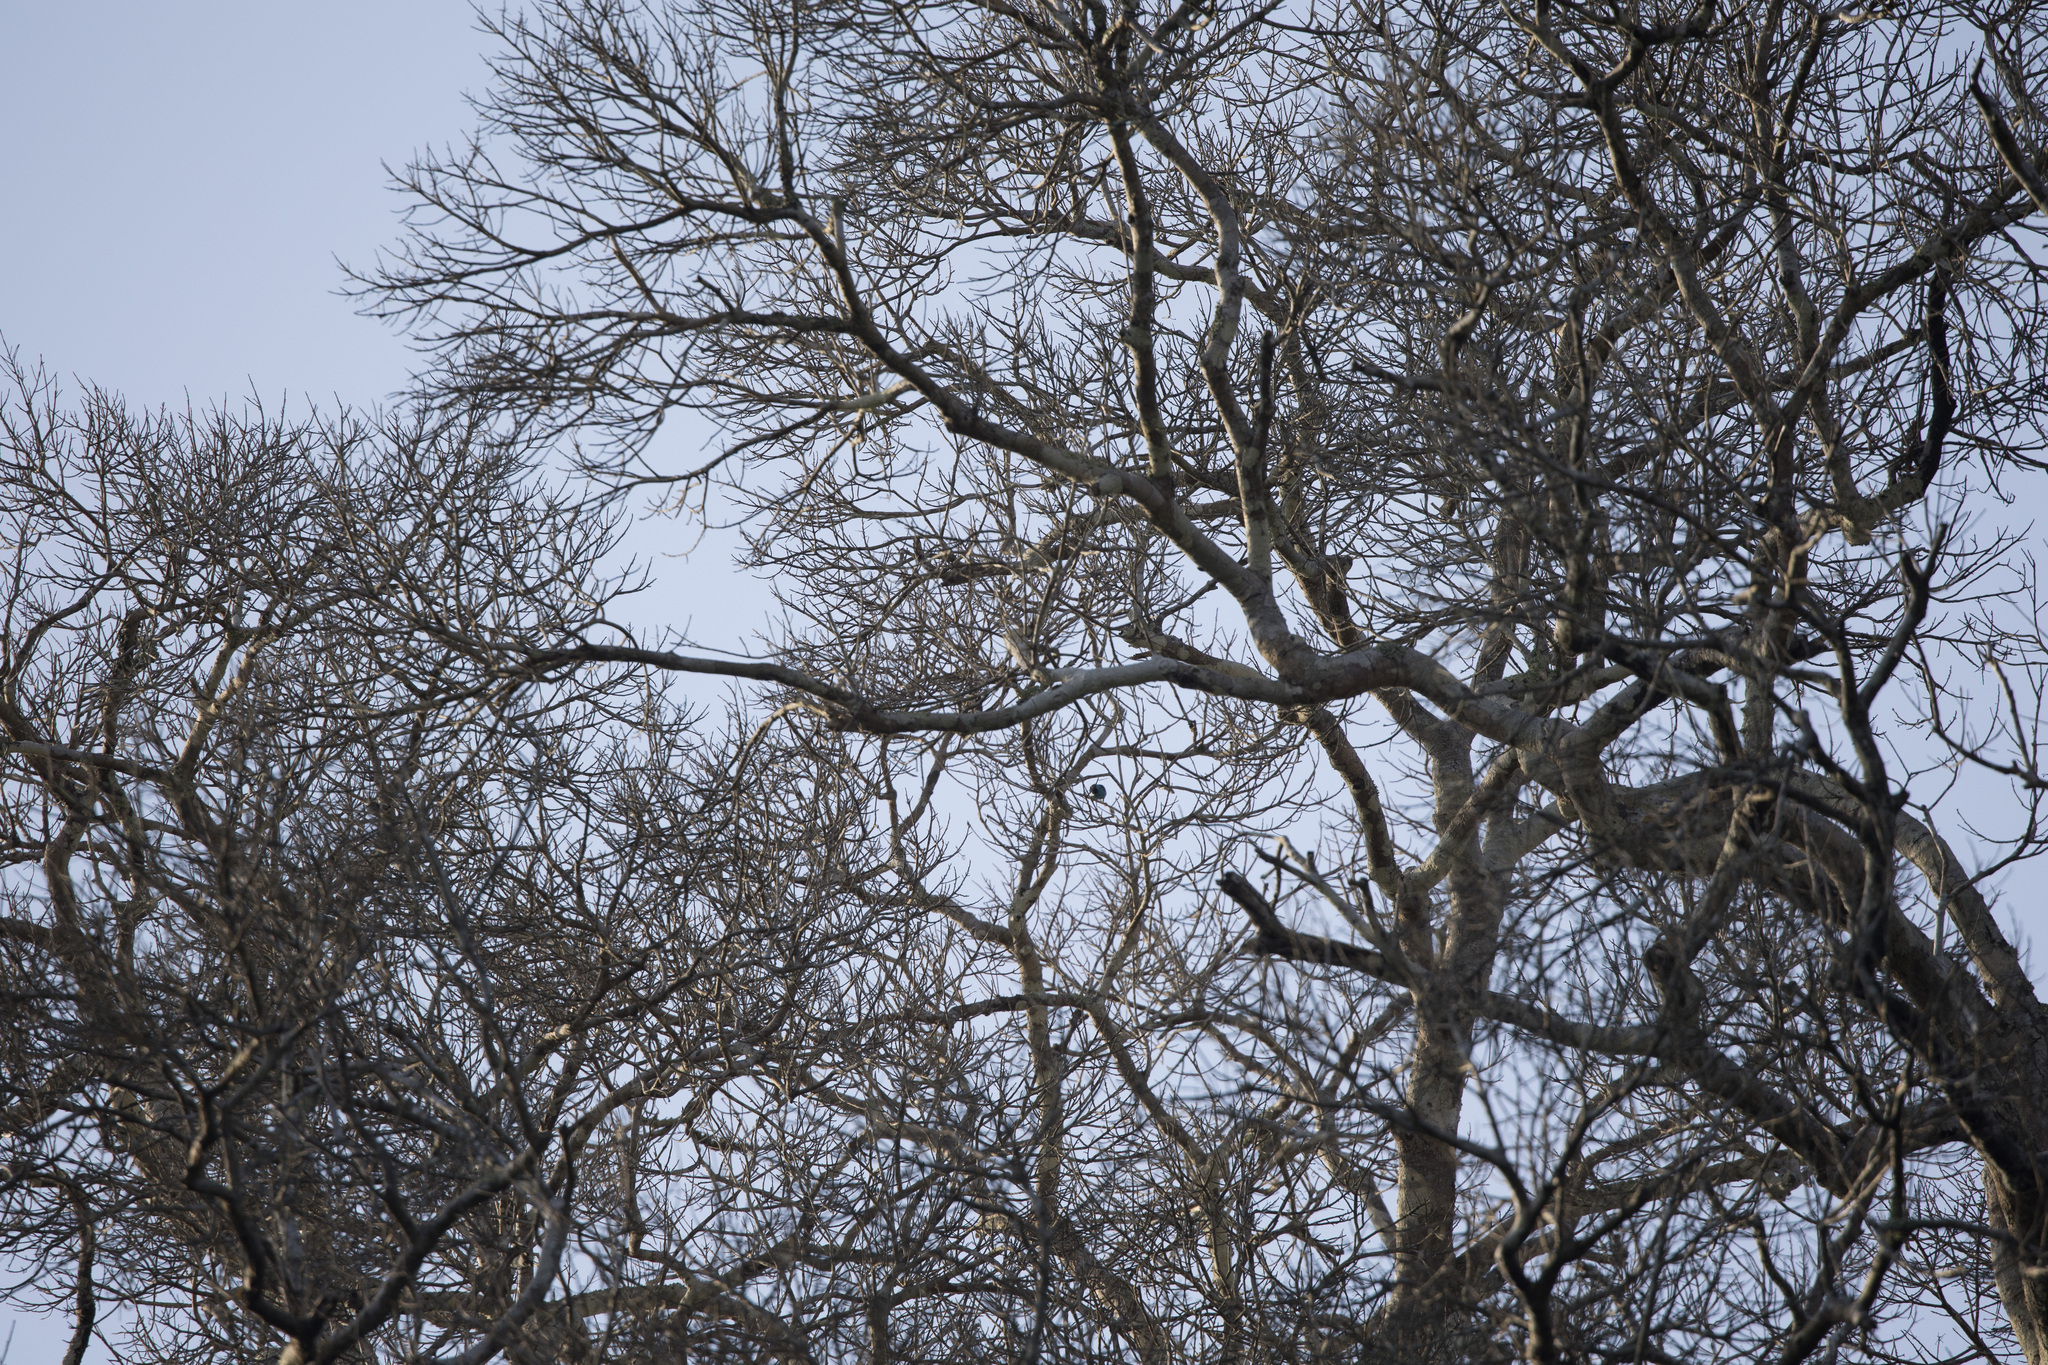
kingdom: Animalia
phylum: Chordata
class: Aves
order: Passeriformes
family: Thraupidae
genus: Dacnis
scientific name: Dacnis cayana
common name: Blue dacnis
